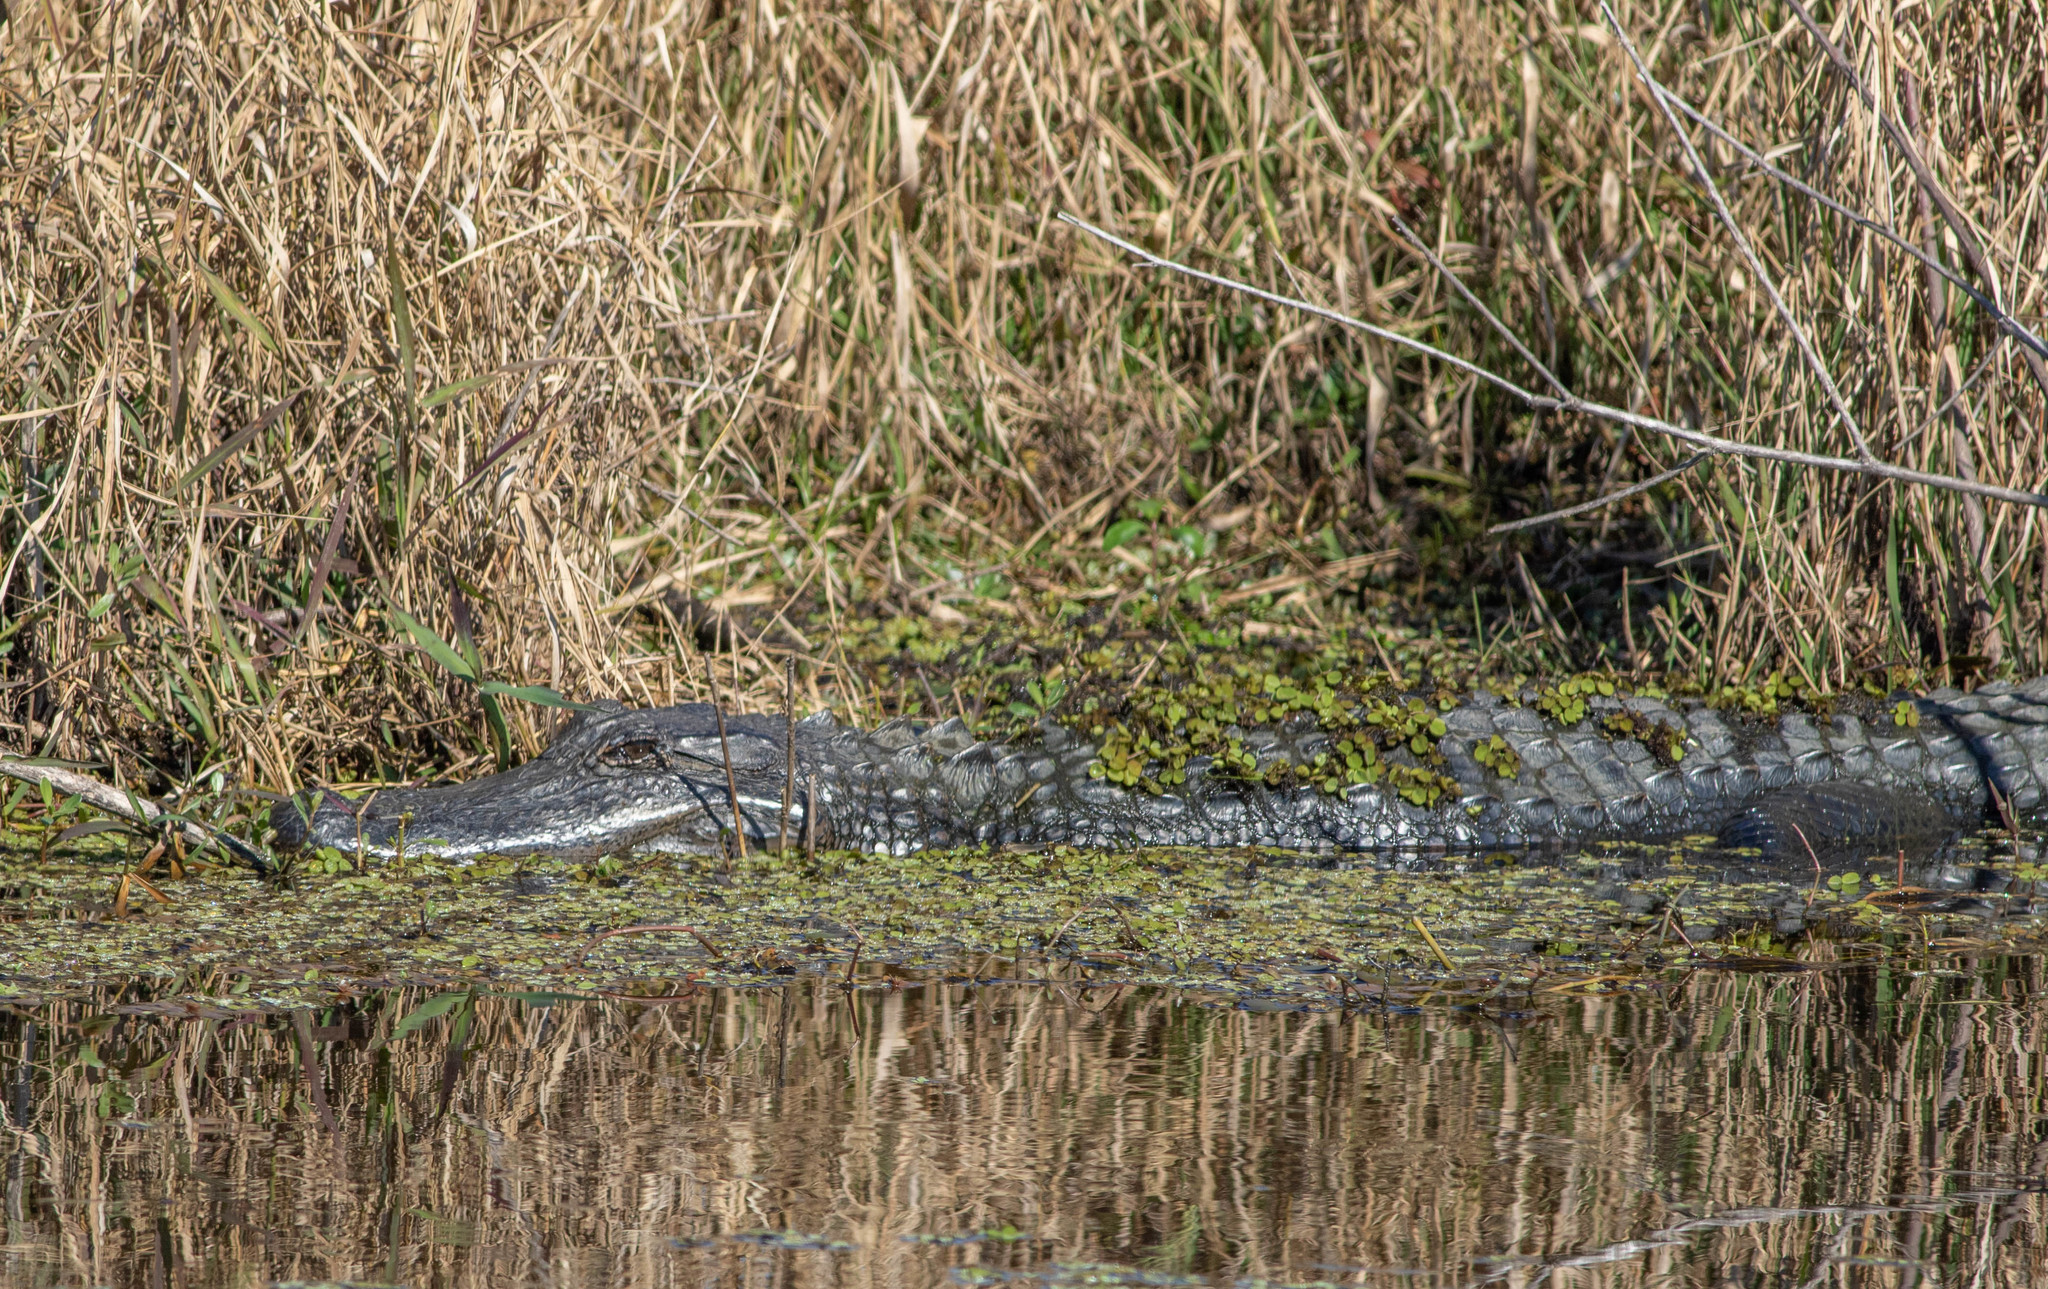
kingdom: Animalia
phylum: Chordata
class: Crocodylia
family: Alligatoridae
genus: Alligator
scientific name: Alligator mississippiensis
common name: American alligator
